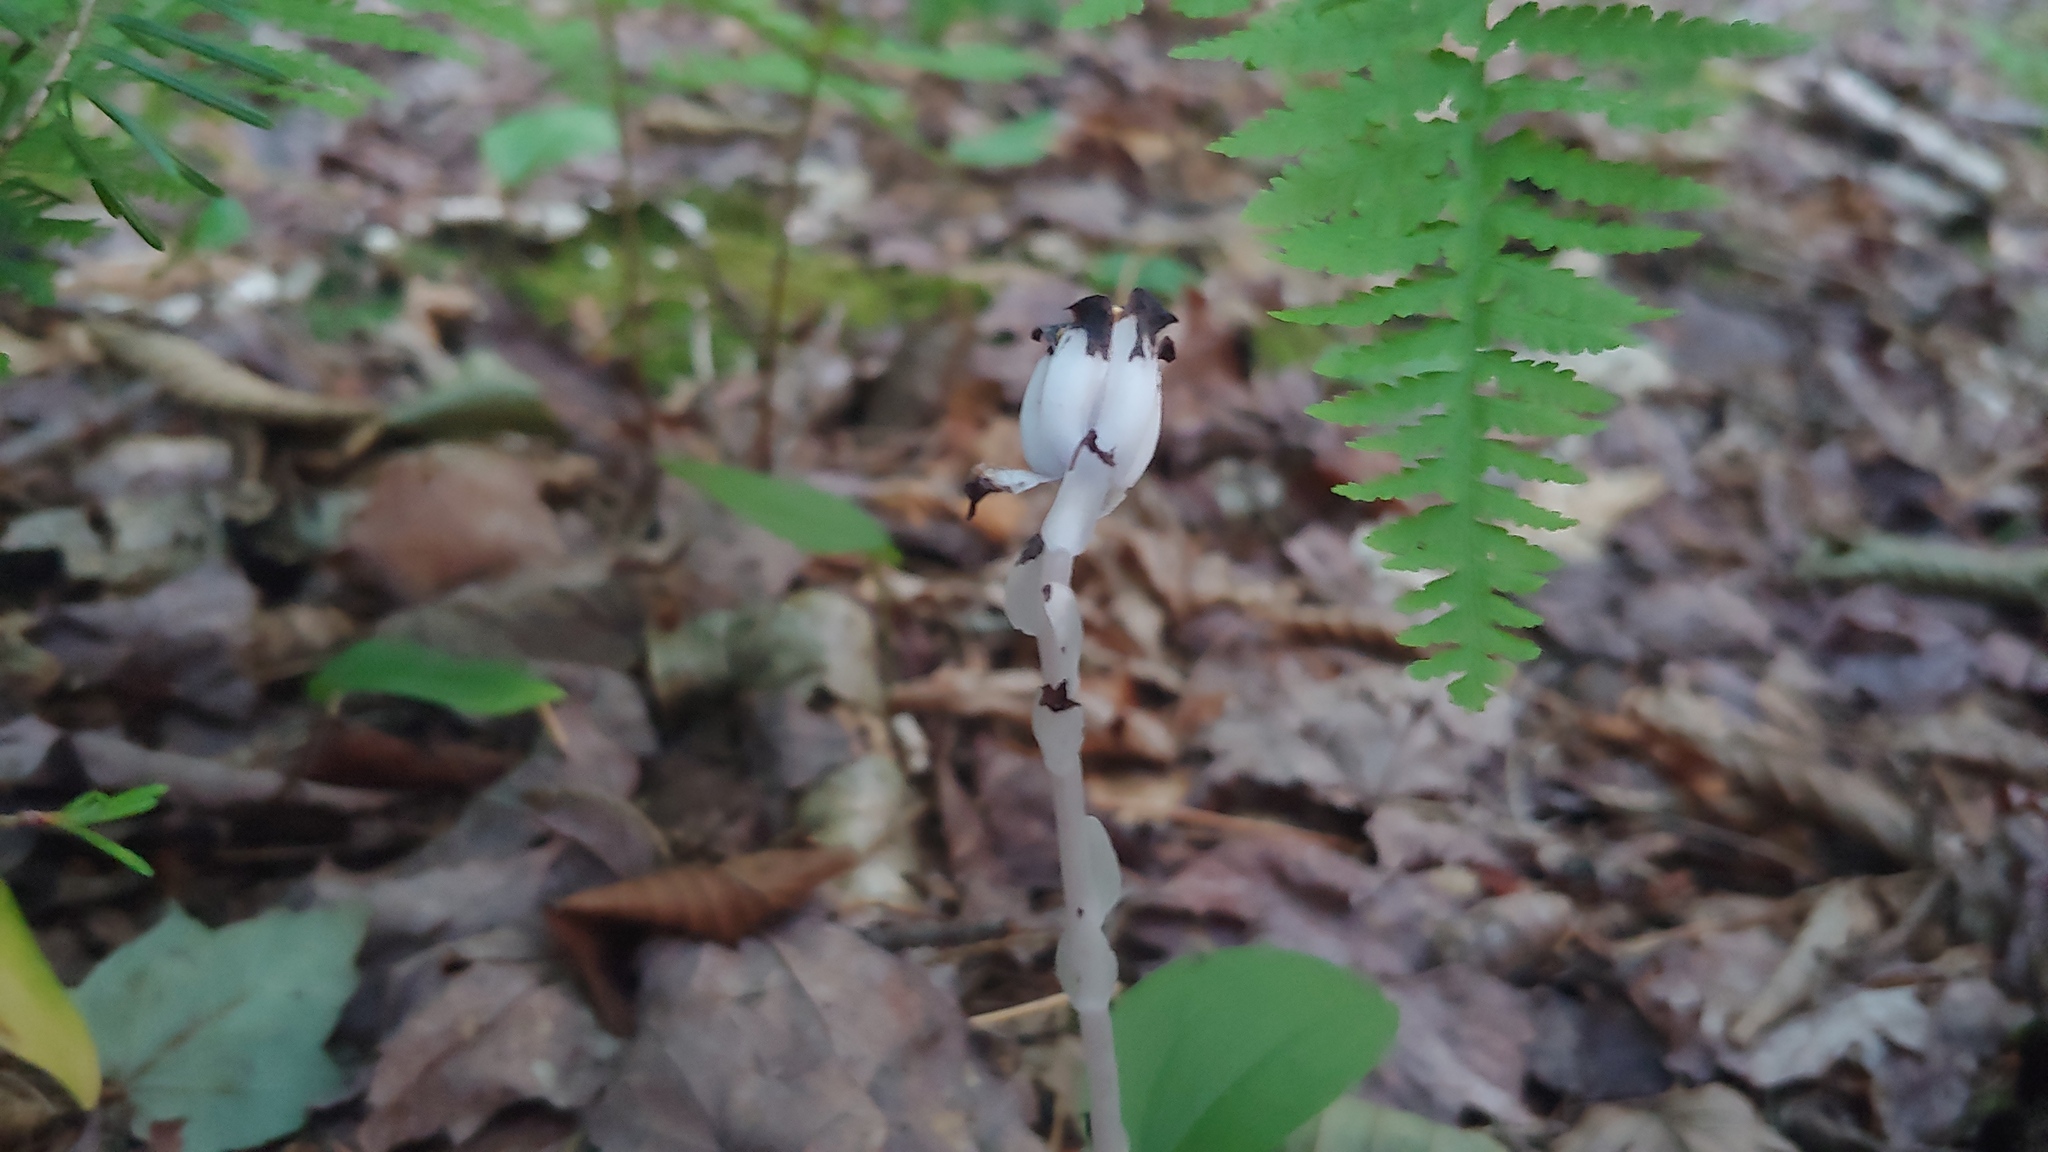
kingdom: Plantae
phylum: Tracheophyta
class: Magnoliopsida
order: Ericales
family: Ericaceae
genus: Monotropa
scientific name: Monotropa uniflora
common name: Convulsion root
